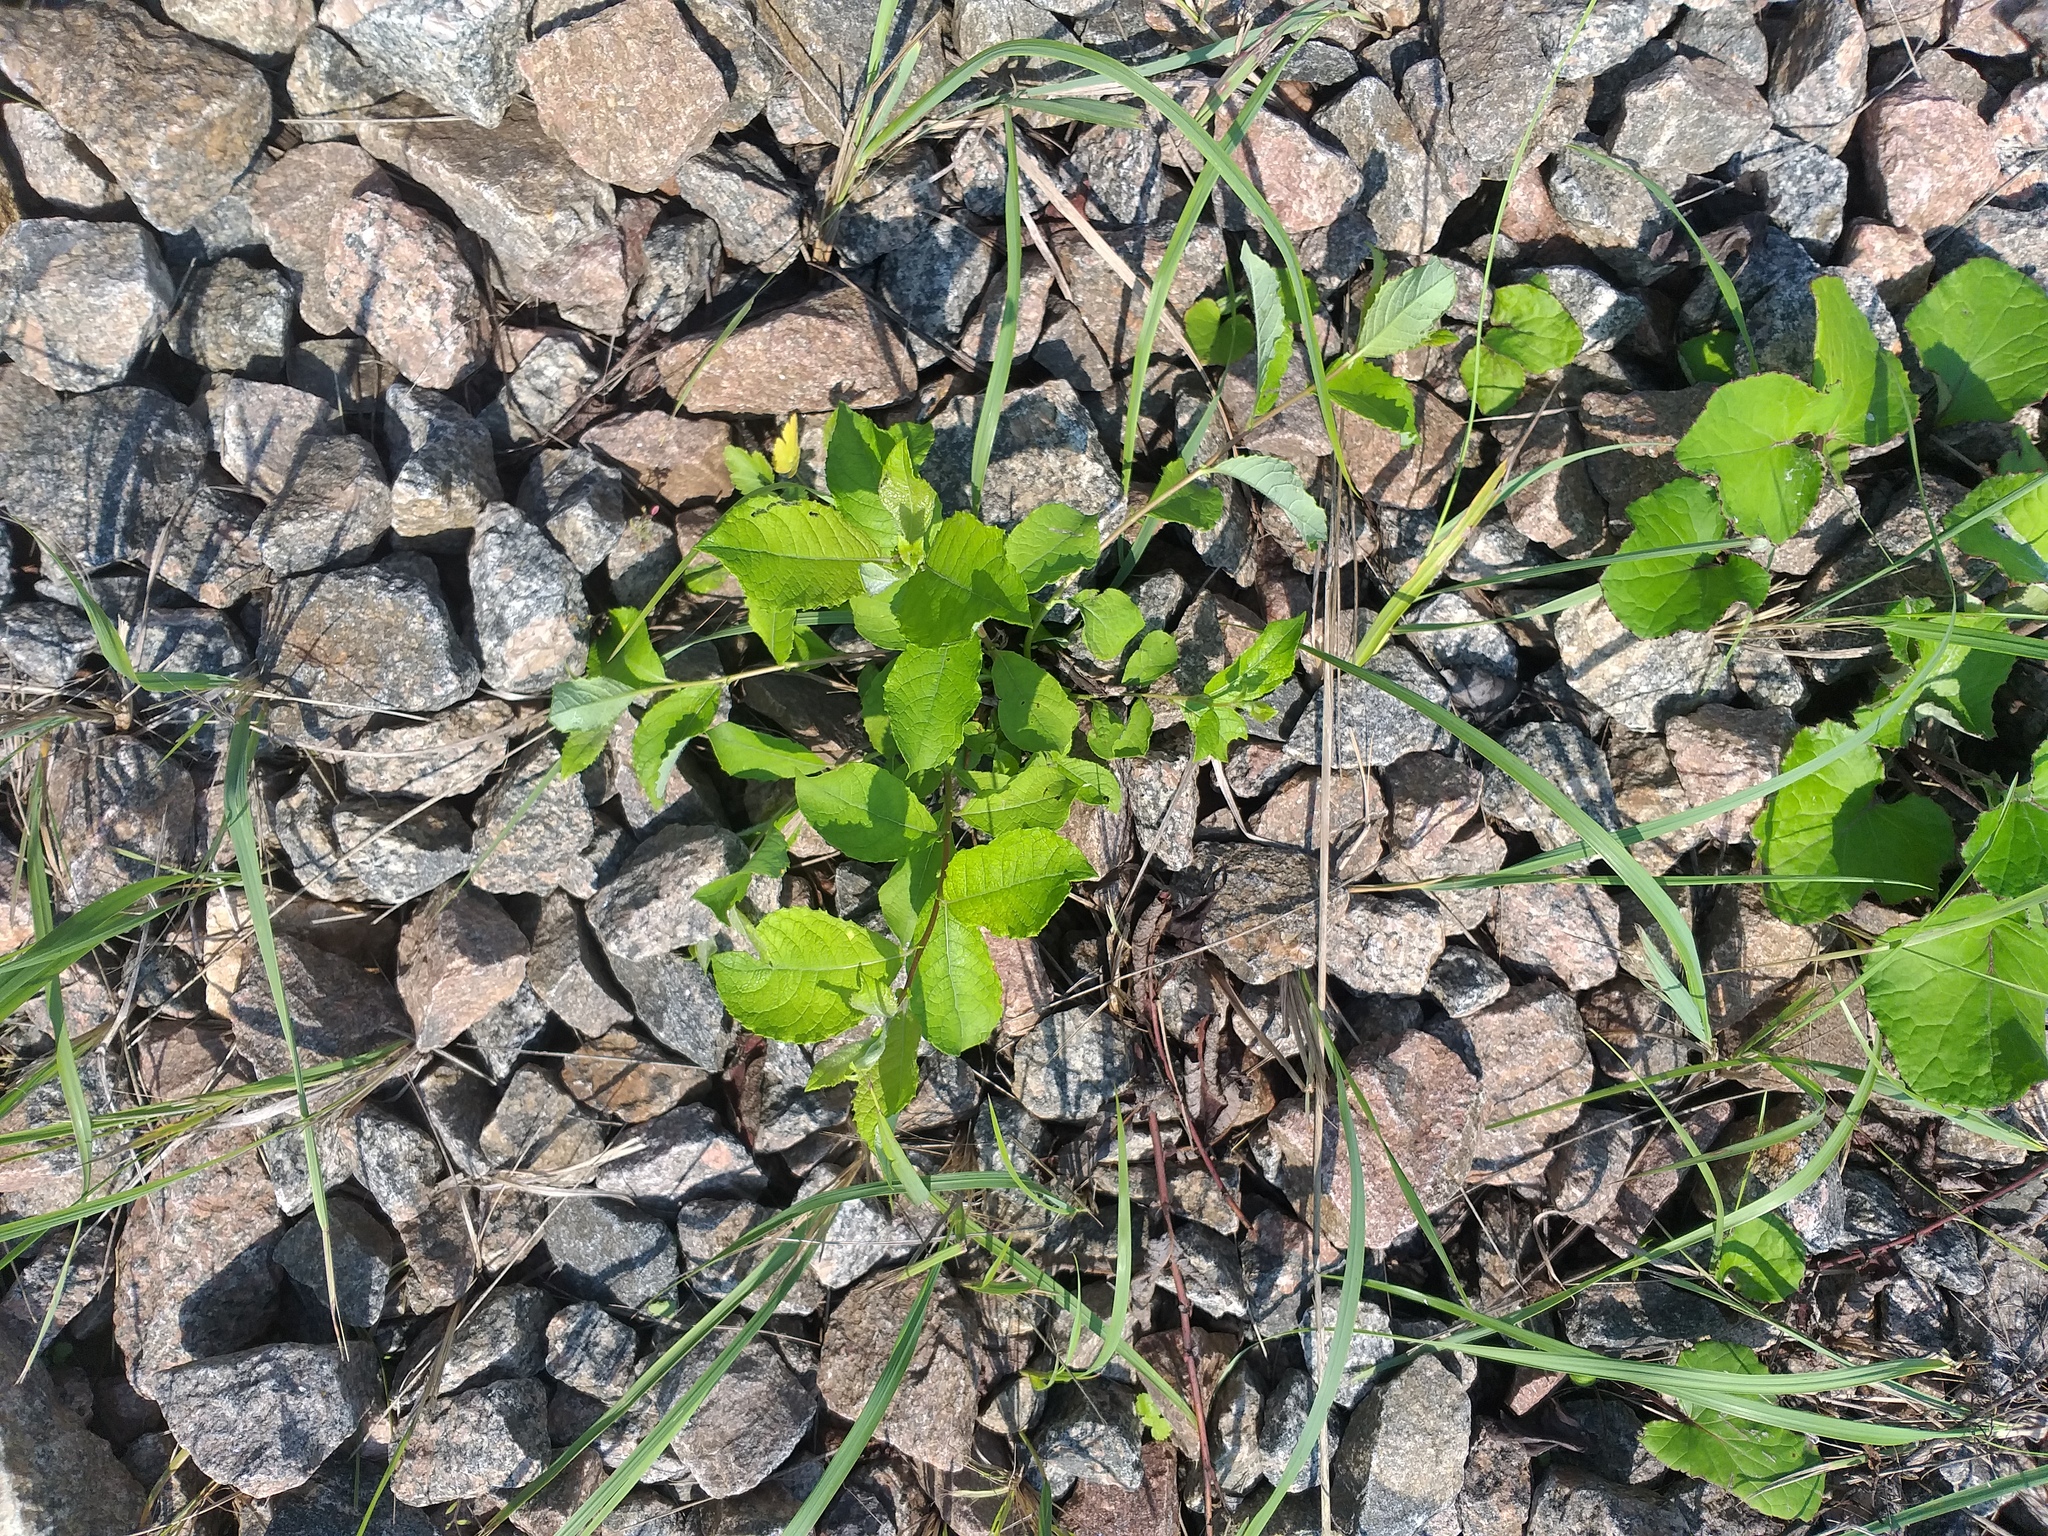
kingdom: Plantae
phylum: Tracheophyta
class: Magnoliopsida
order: Malpighiales
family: Salicaceae
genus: Salix
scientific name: Salix caprea
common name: Goat willow
